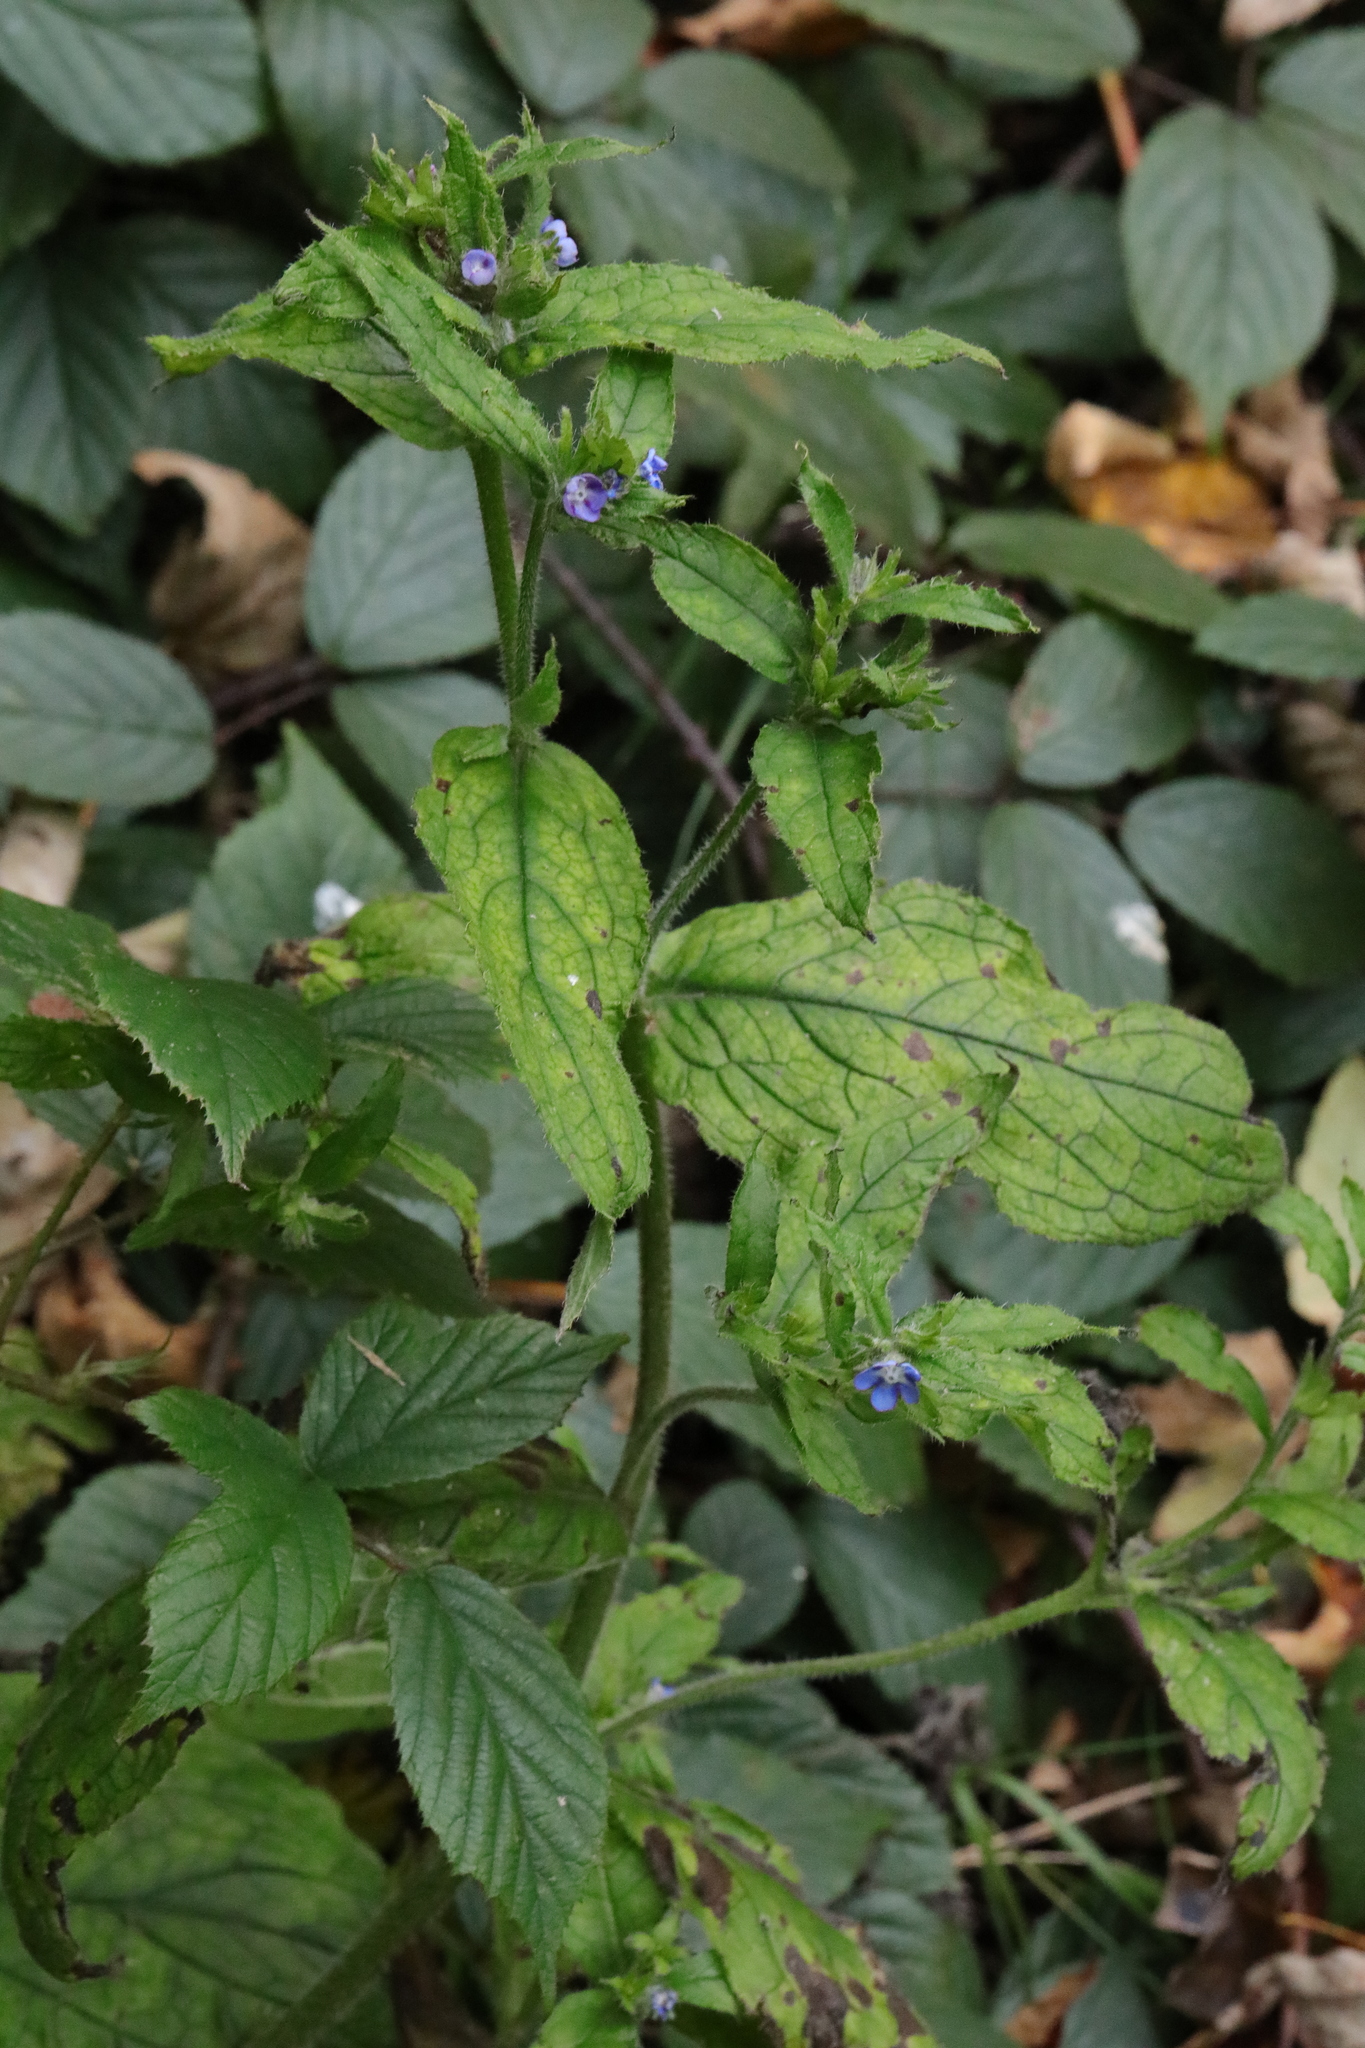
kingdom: Plantae
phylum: Tracheophyta
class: Magnoliopsida
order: Boraginales
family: Boraginaceae
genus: Pentaglottis
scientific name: Pentaglottis sempervirens
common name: Green alkanet
